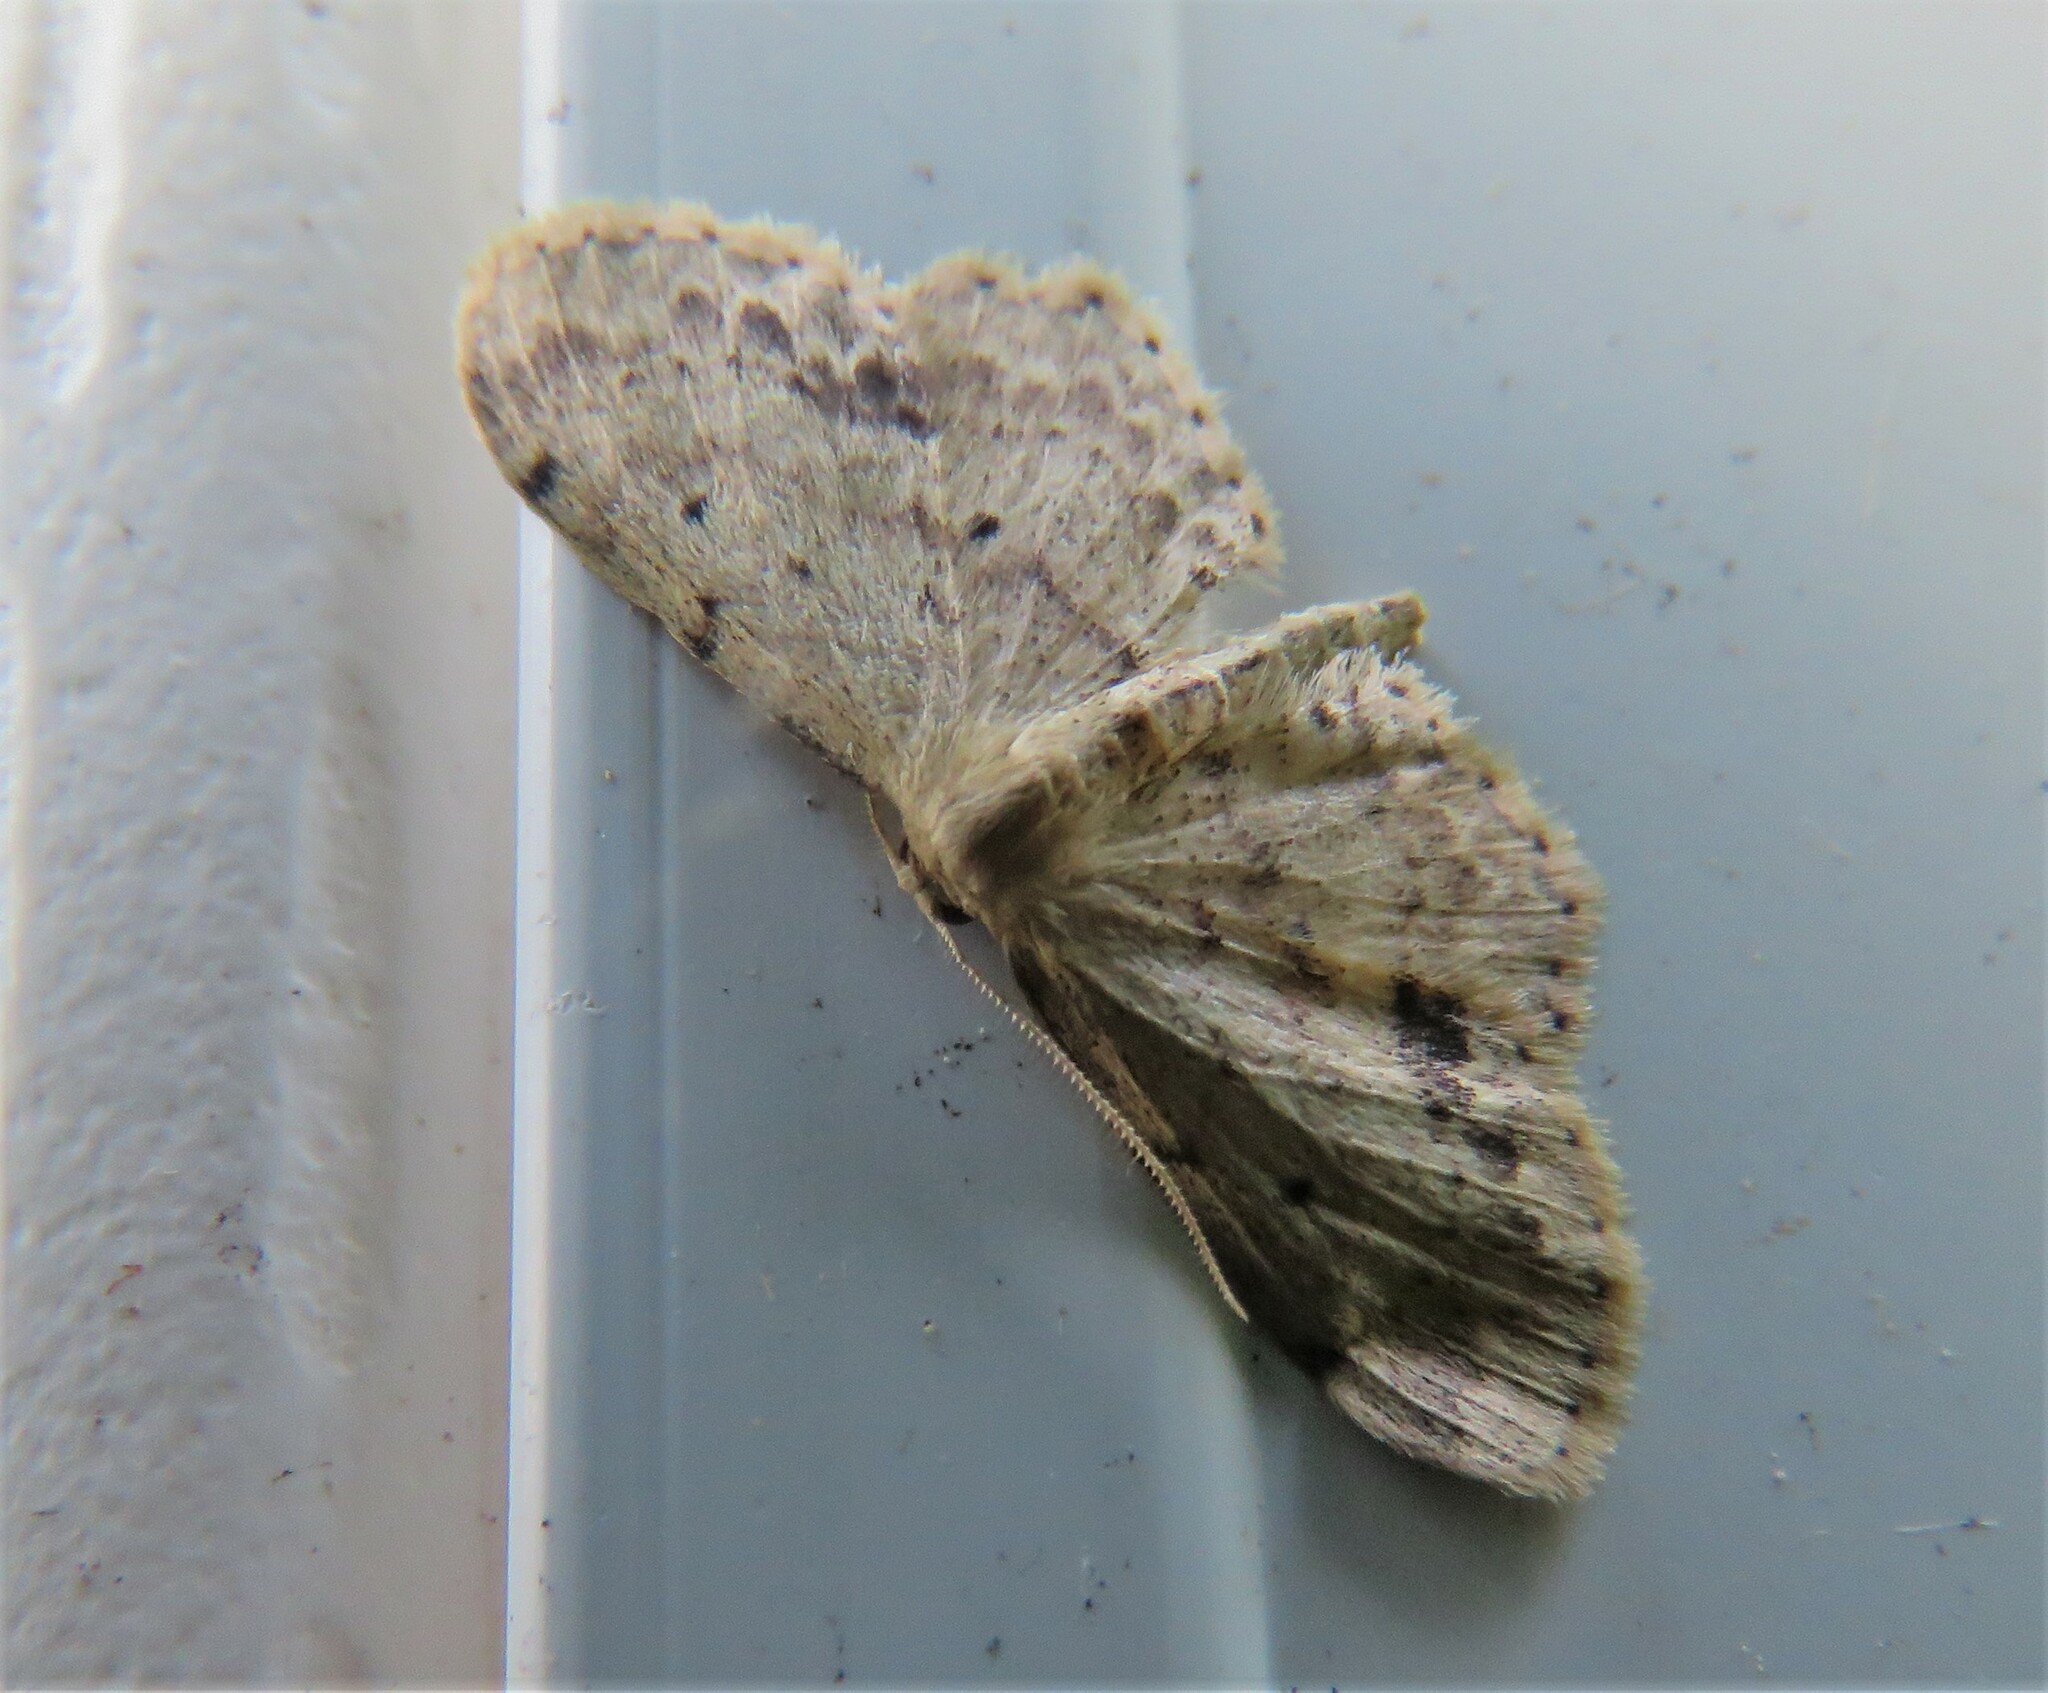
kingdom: Animalia
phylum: Arthropoda
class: Insecta
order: Lepidoptera
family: Geometridae
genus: Idaea
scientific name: Idaea dimidiata
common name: Single-dotted wave
